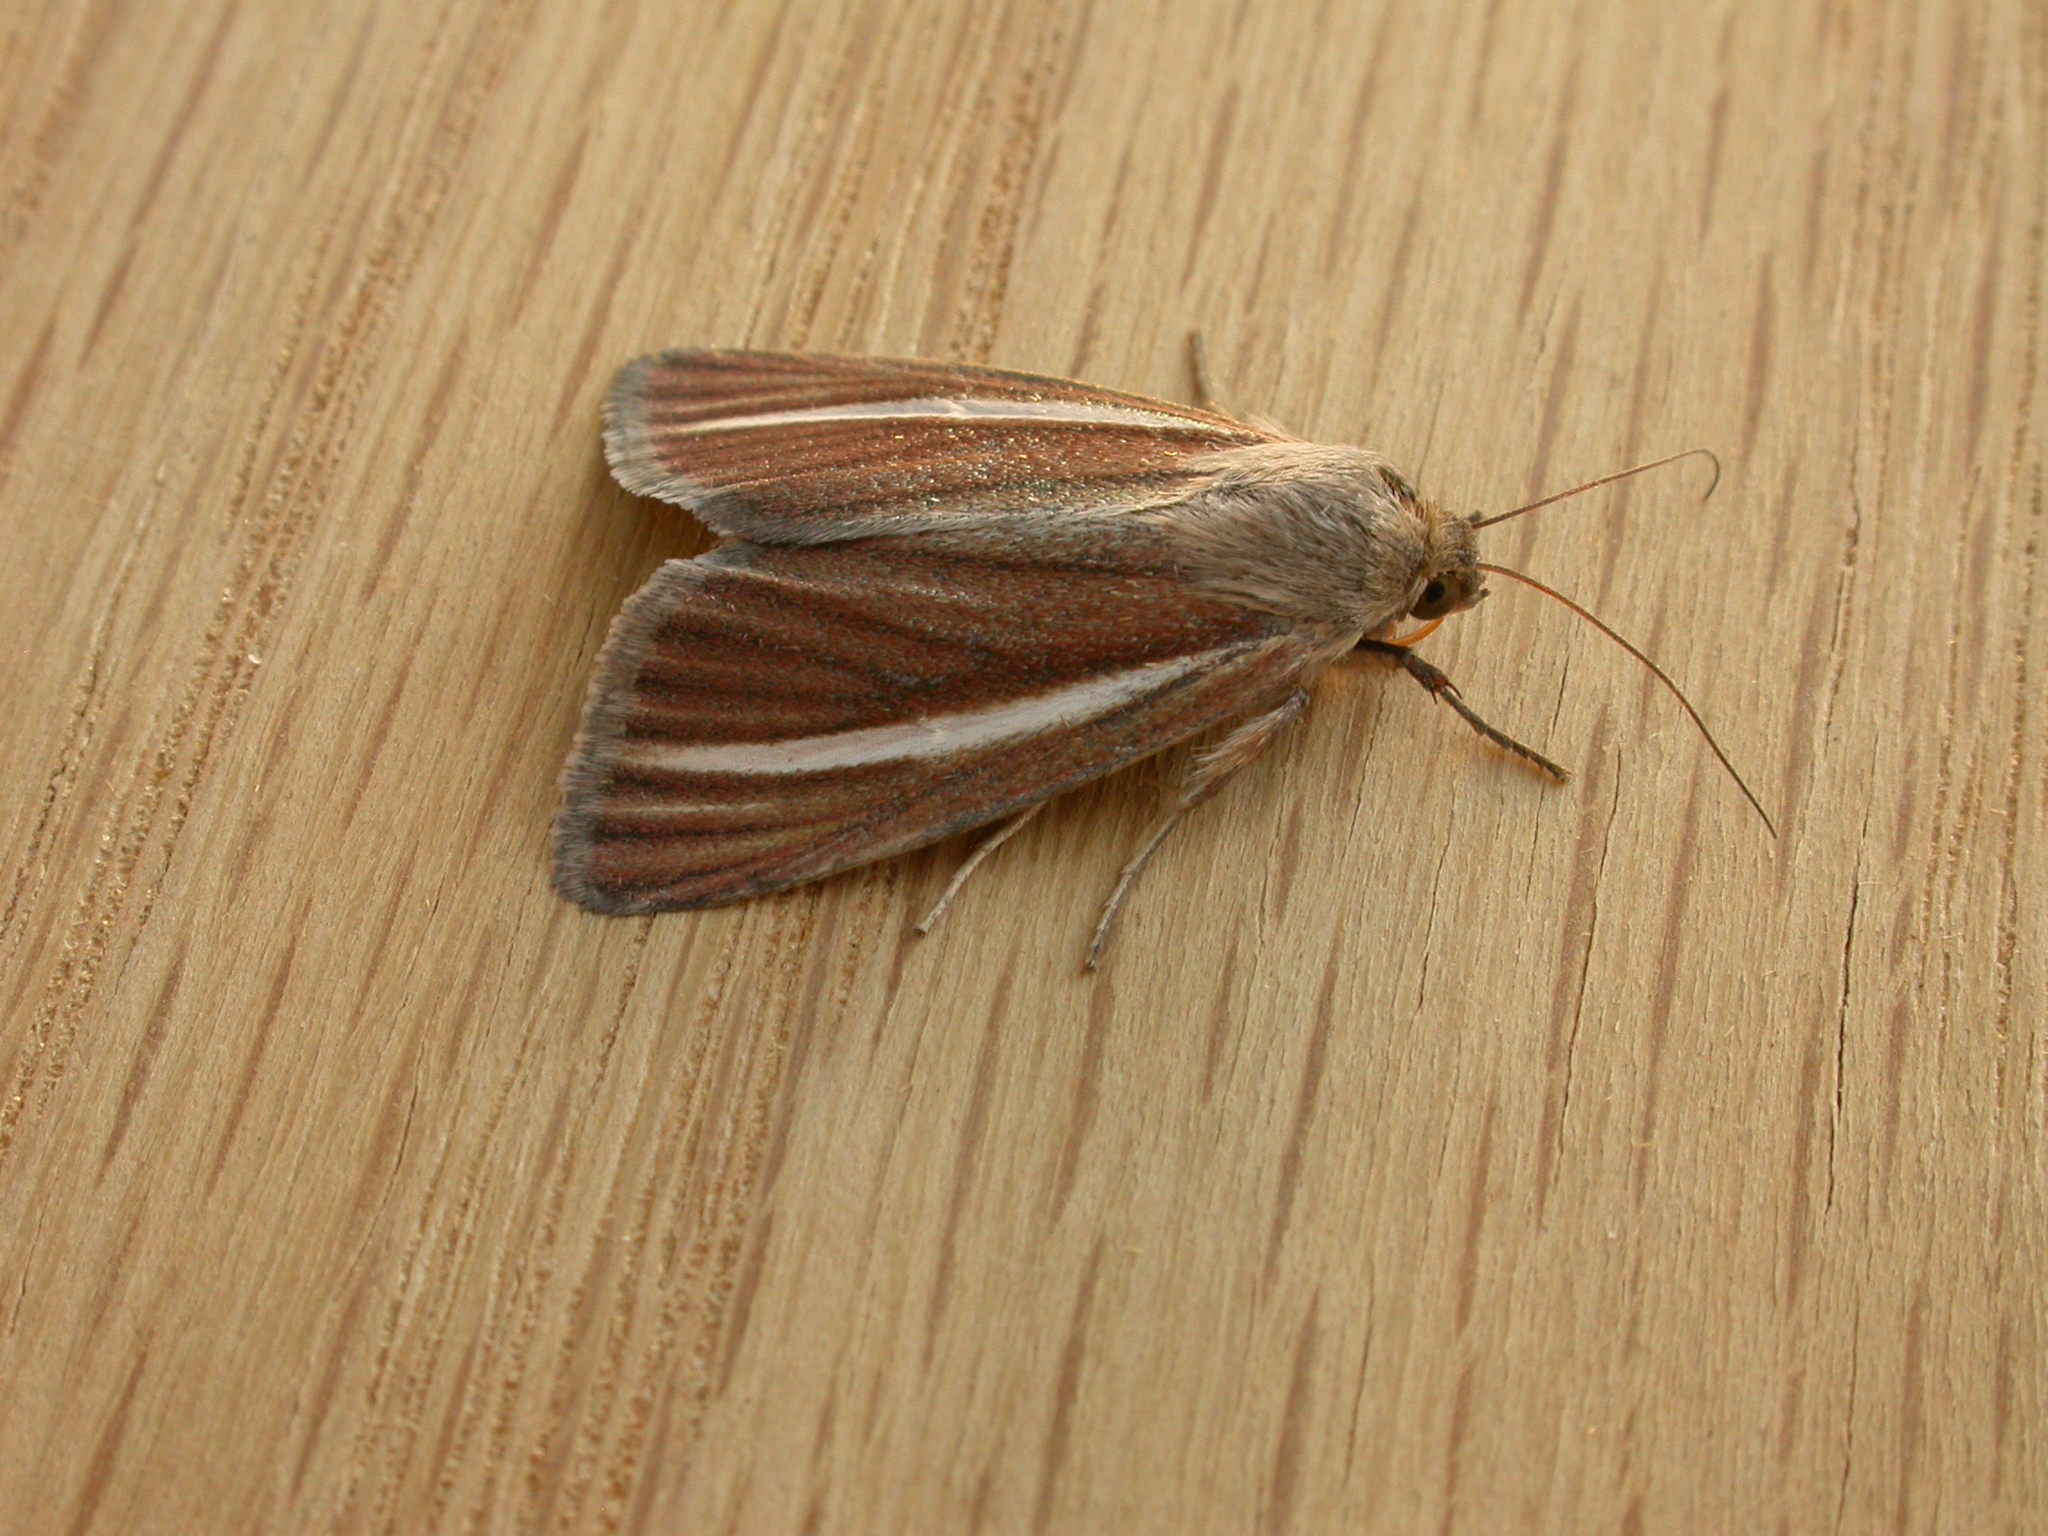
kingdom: Animalia
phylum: Arthropoda
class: Insecta
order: Lepidoptera
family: Noctuidae
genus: Heliocheilus
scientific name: Heliocheilus cramboides
